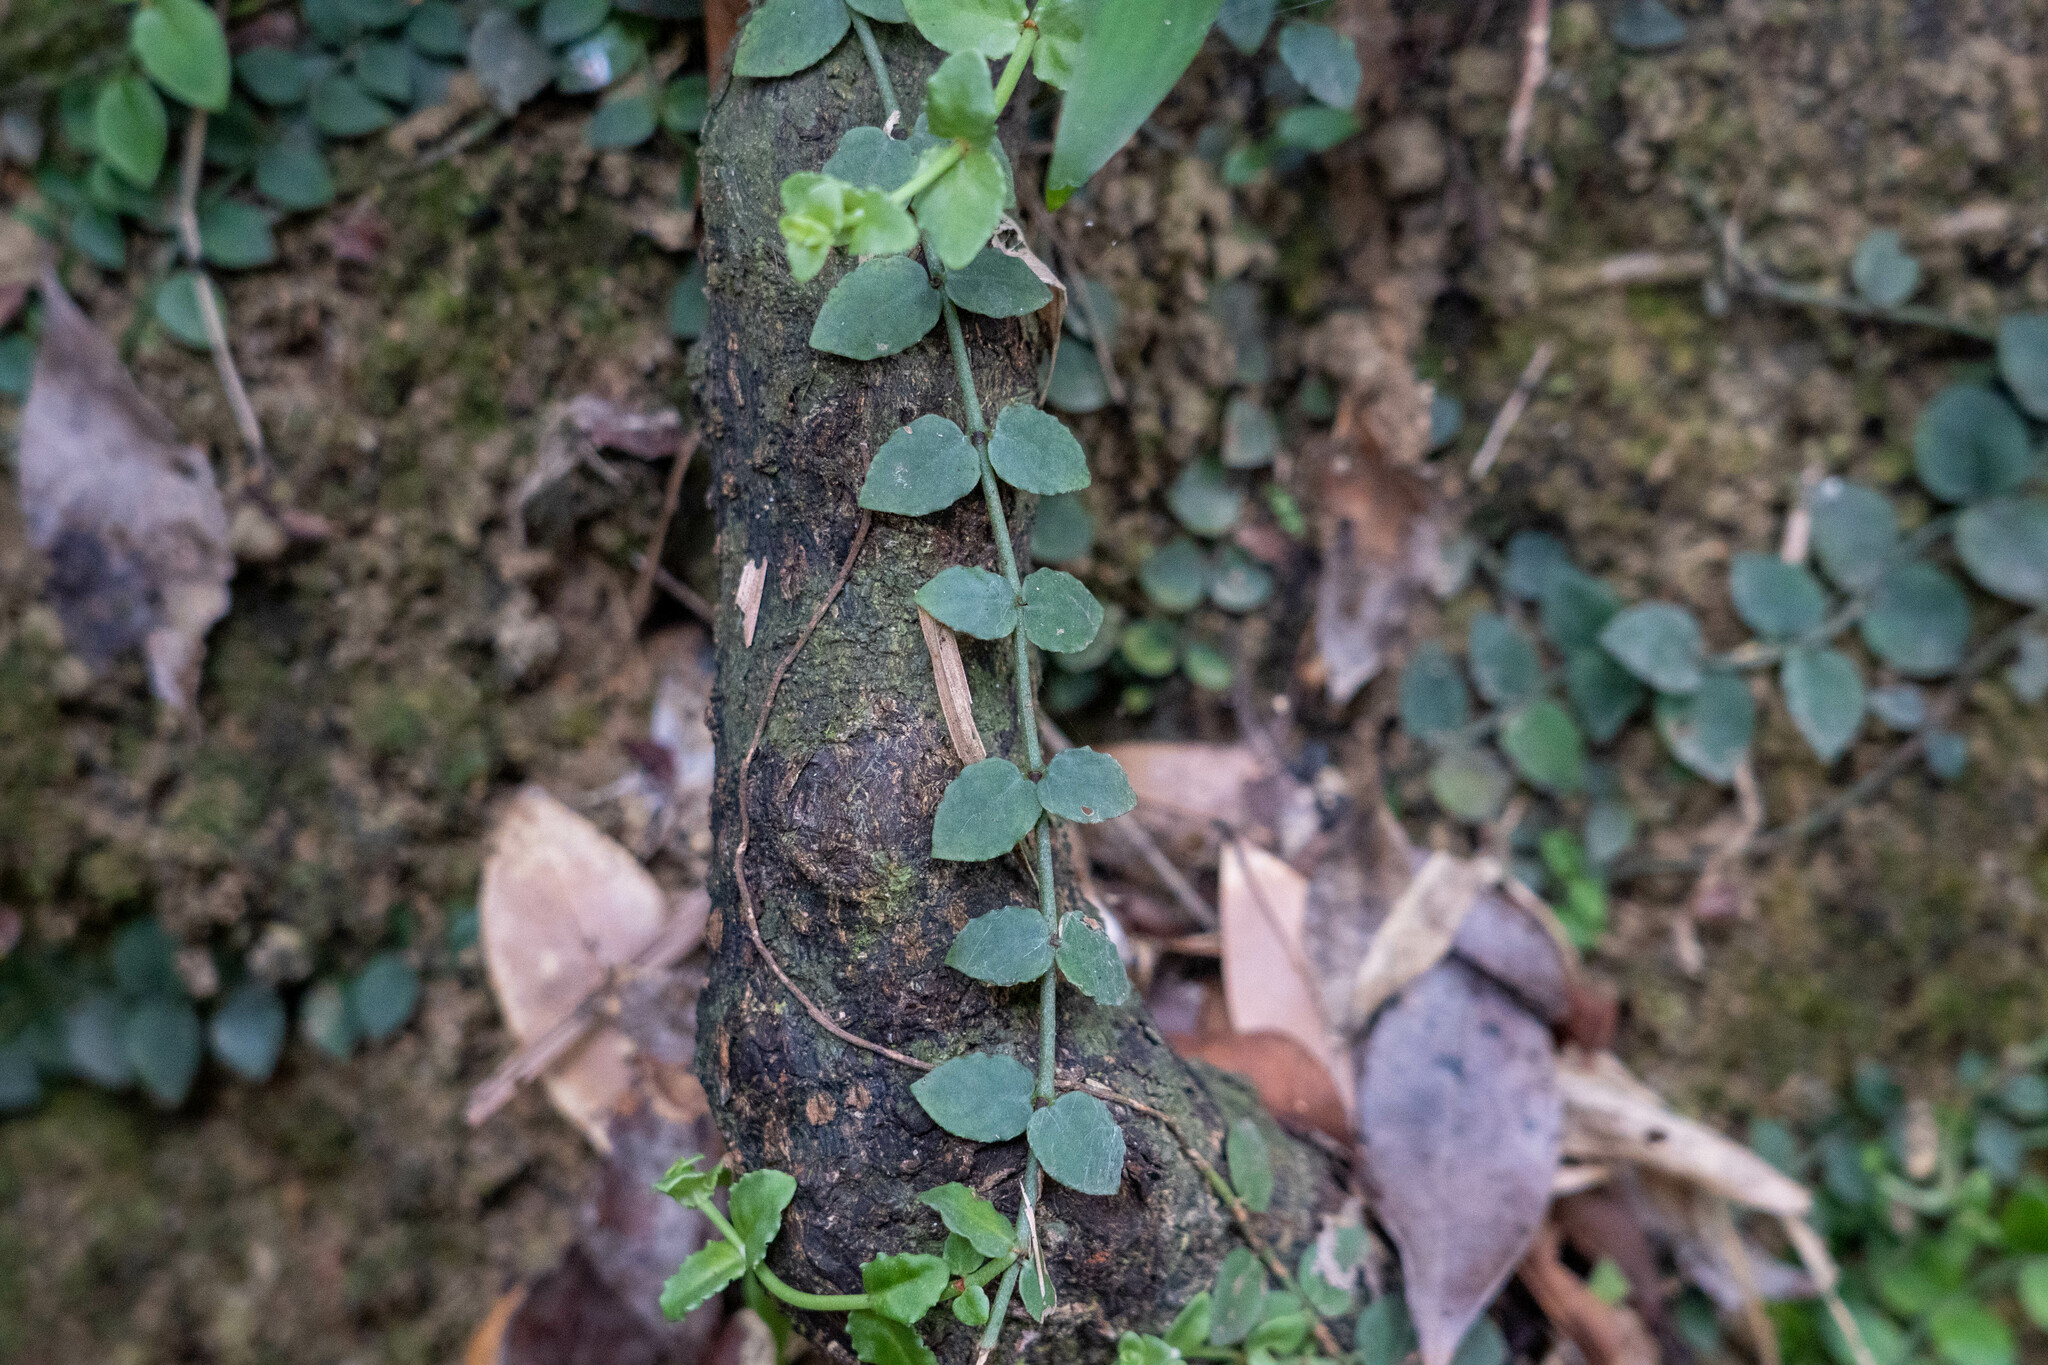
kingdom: Plantae
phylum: Tracheophyta
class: Magnoliopsida
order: Gentianales
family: Rubiaceae
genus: Psychotria
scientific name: Psychotria serpens
